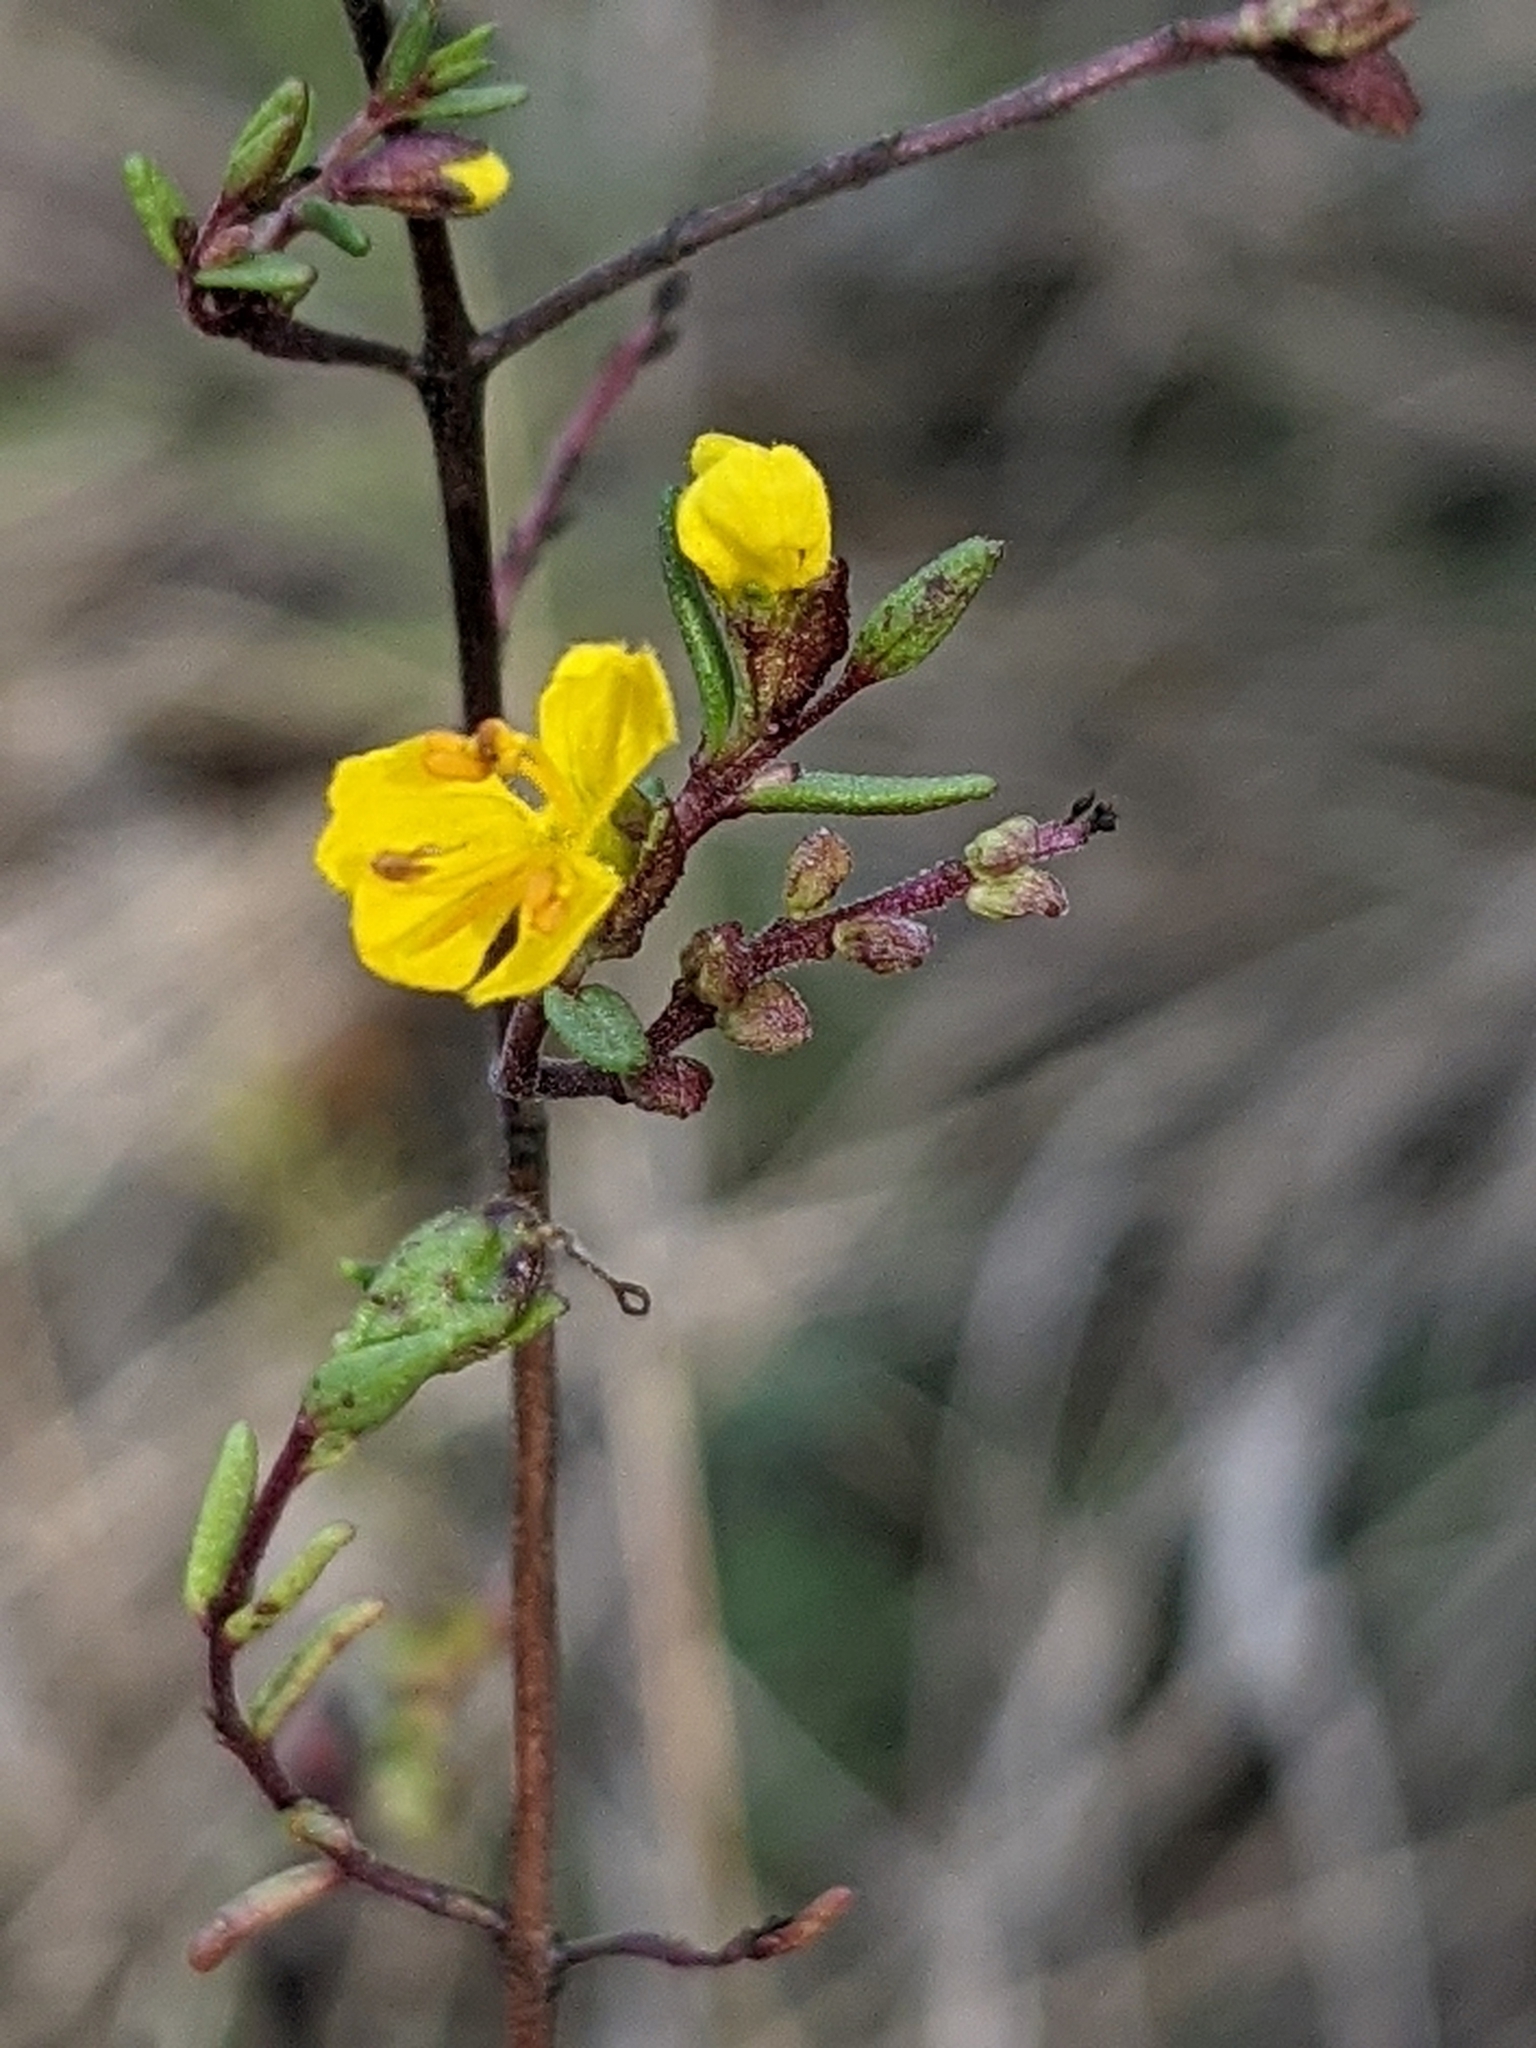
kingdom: Plantae
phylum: Tracheophyta
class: Magnoliopsida
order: Lamiales
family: Orobanchaceae
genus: Odontites
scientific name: Odontites luteus
